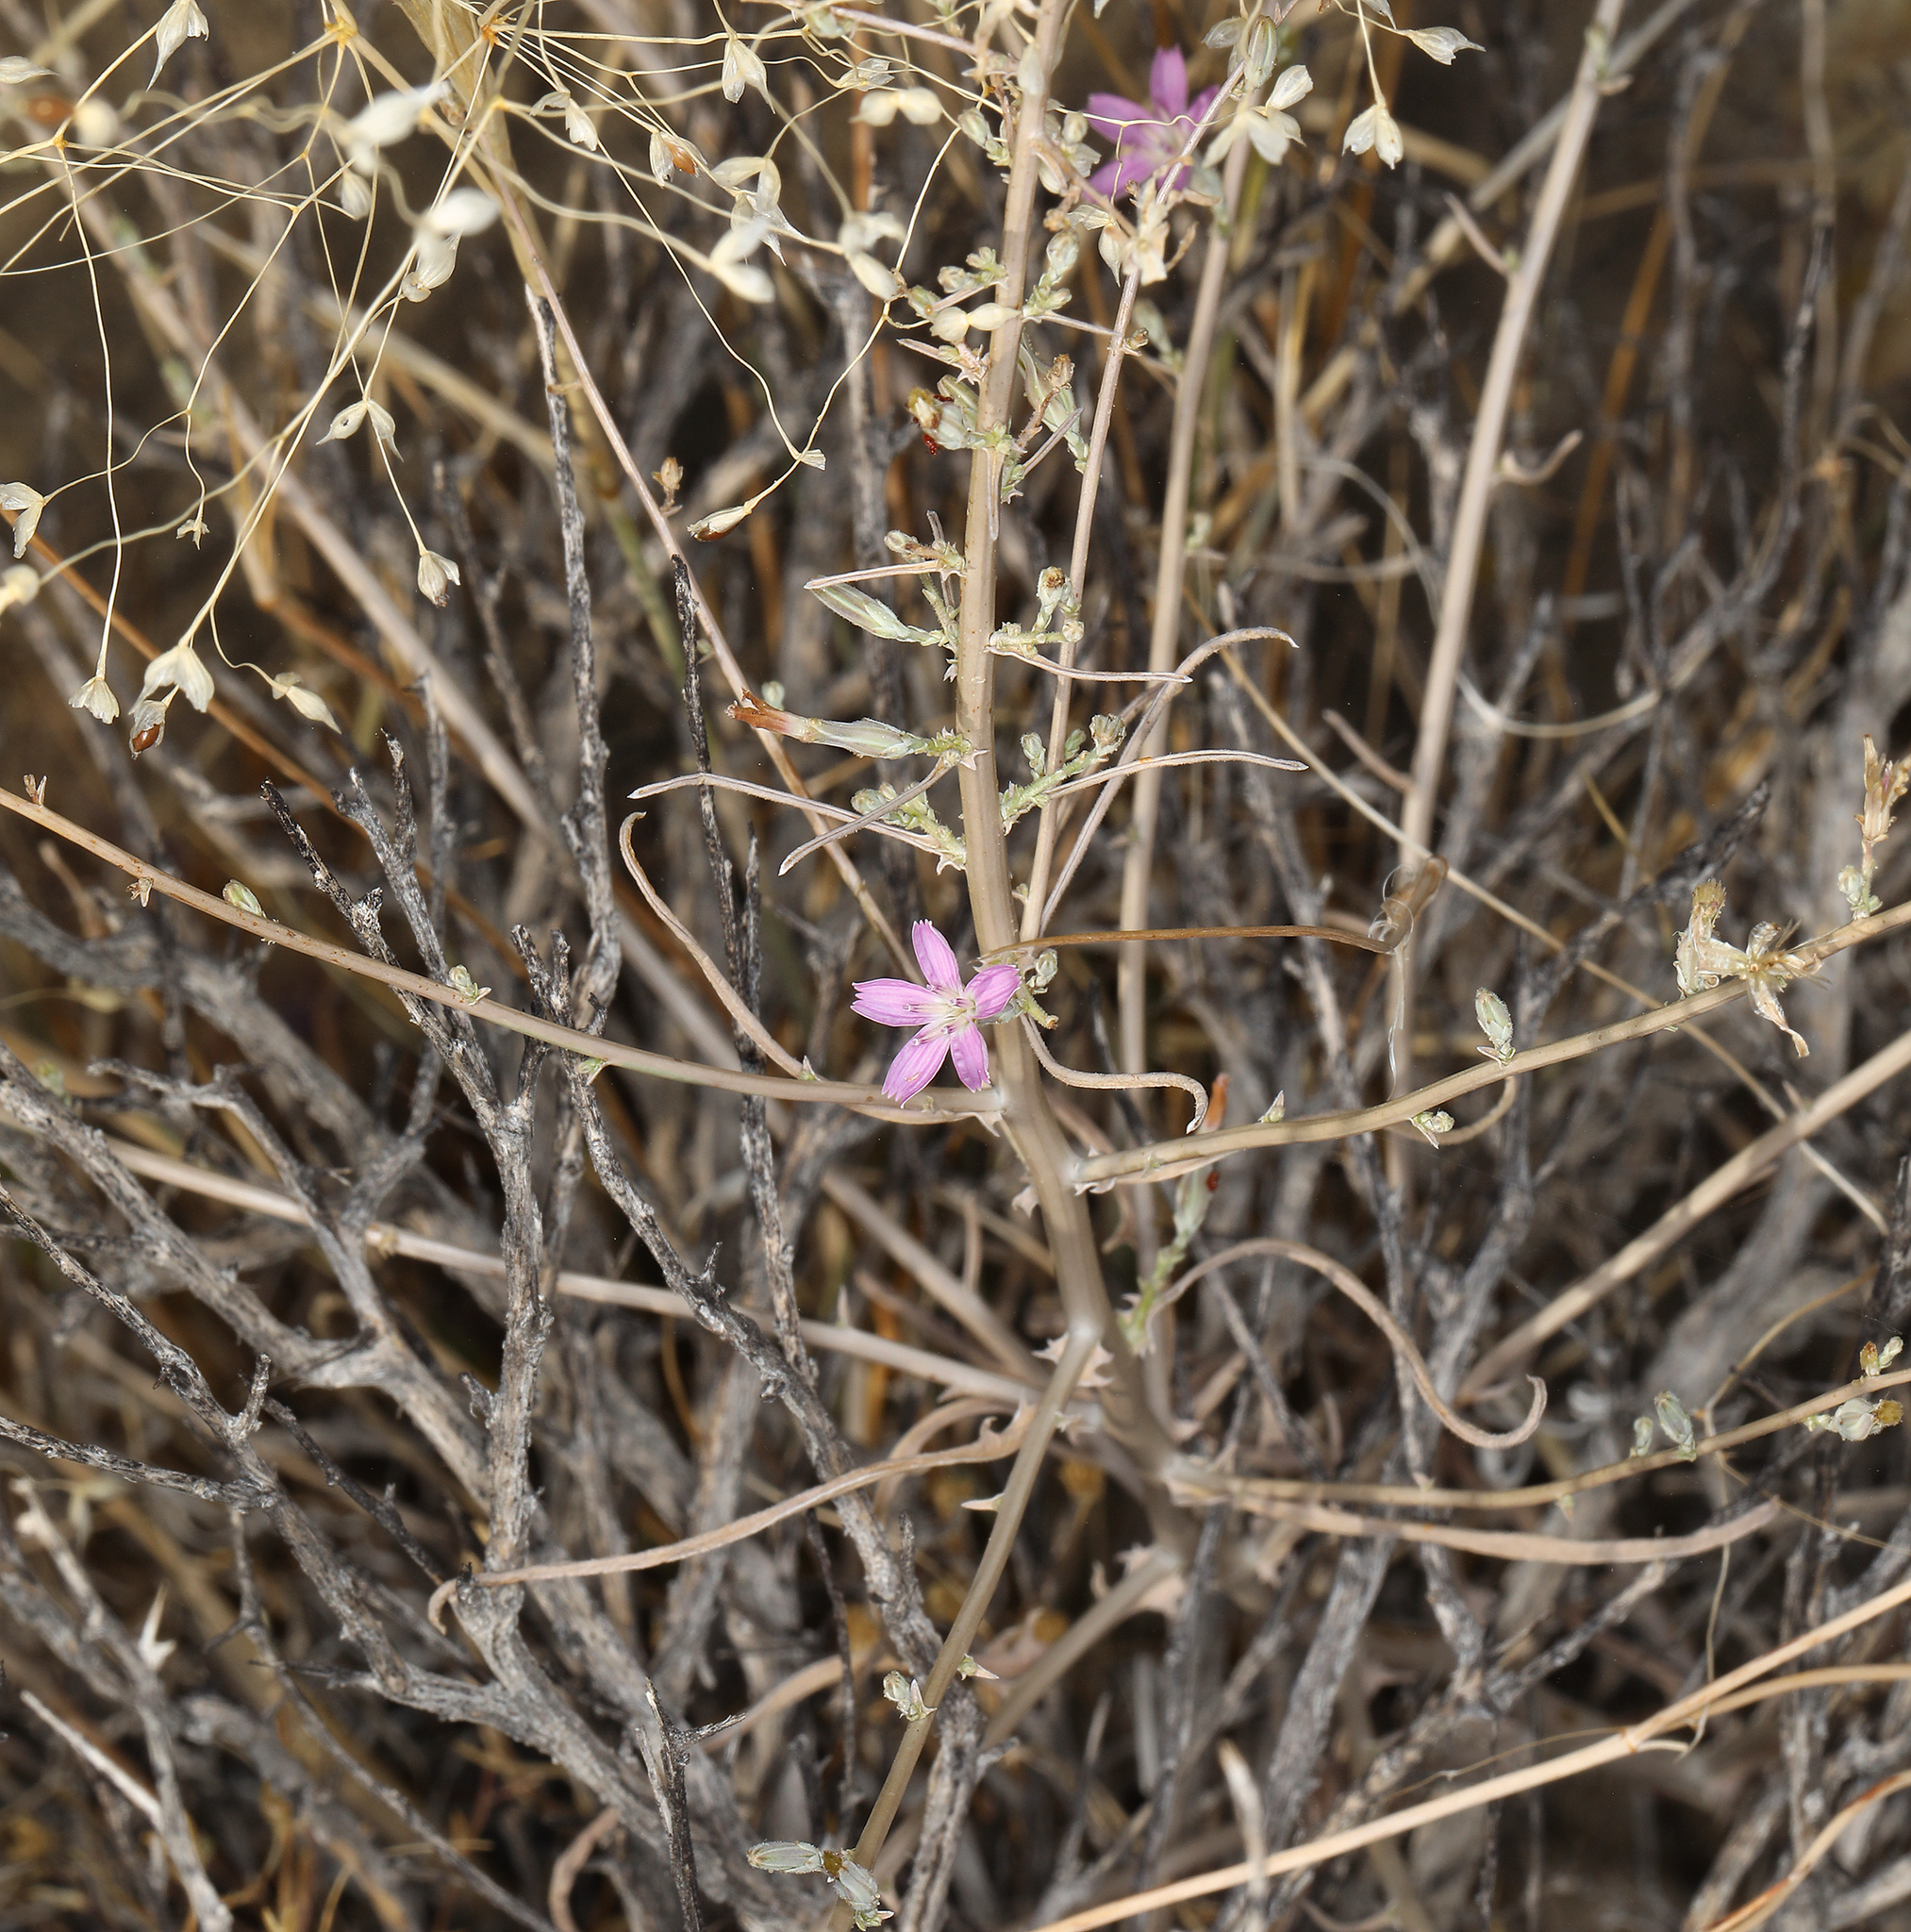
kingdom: Plantae
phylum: Tracheophyta
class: Magnoliopsida
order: Asterales
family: Asteraceae
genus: Stephanomeria
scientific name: Stephanomeria exigua
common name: Small wirelettuce
